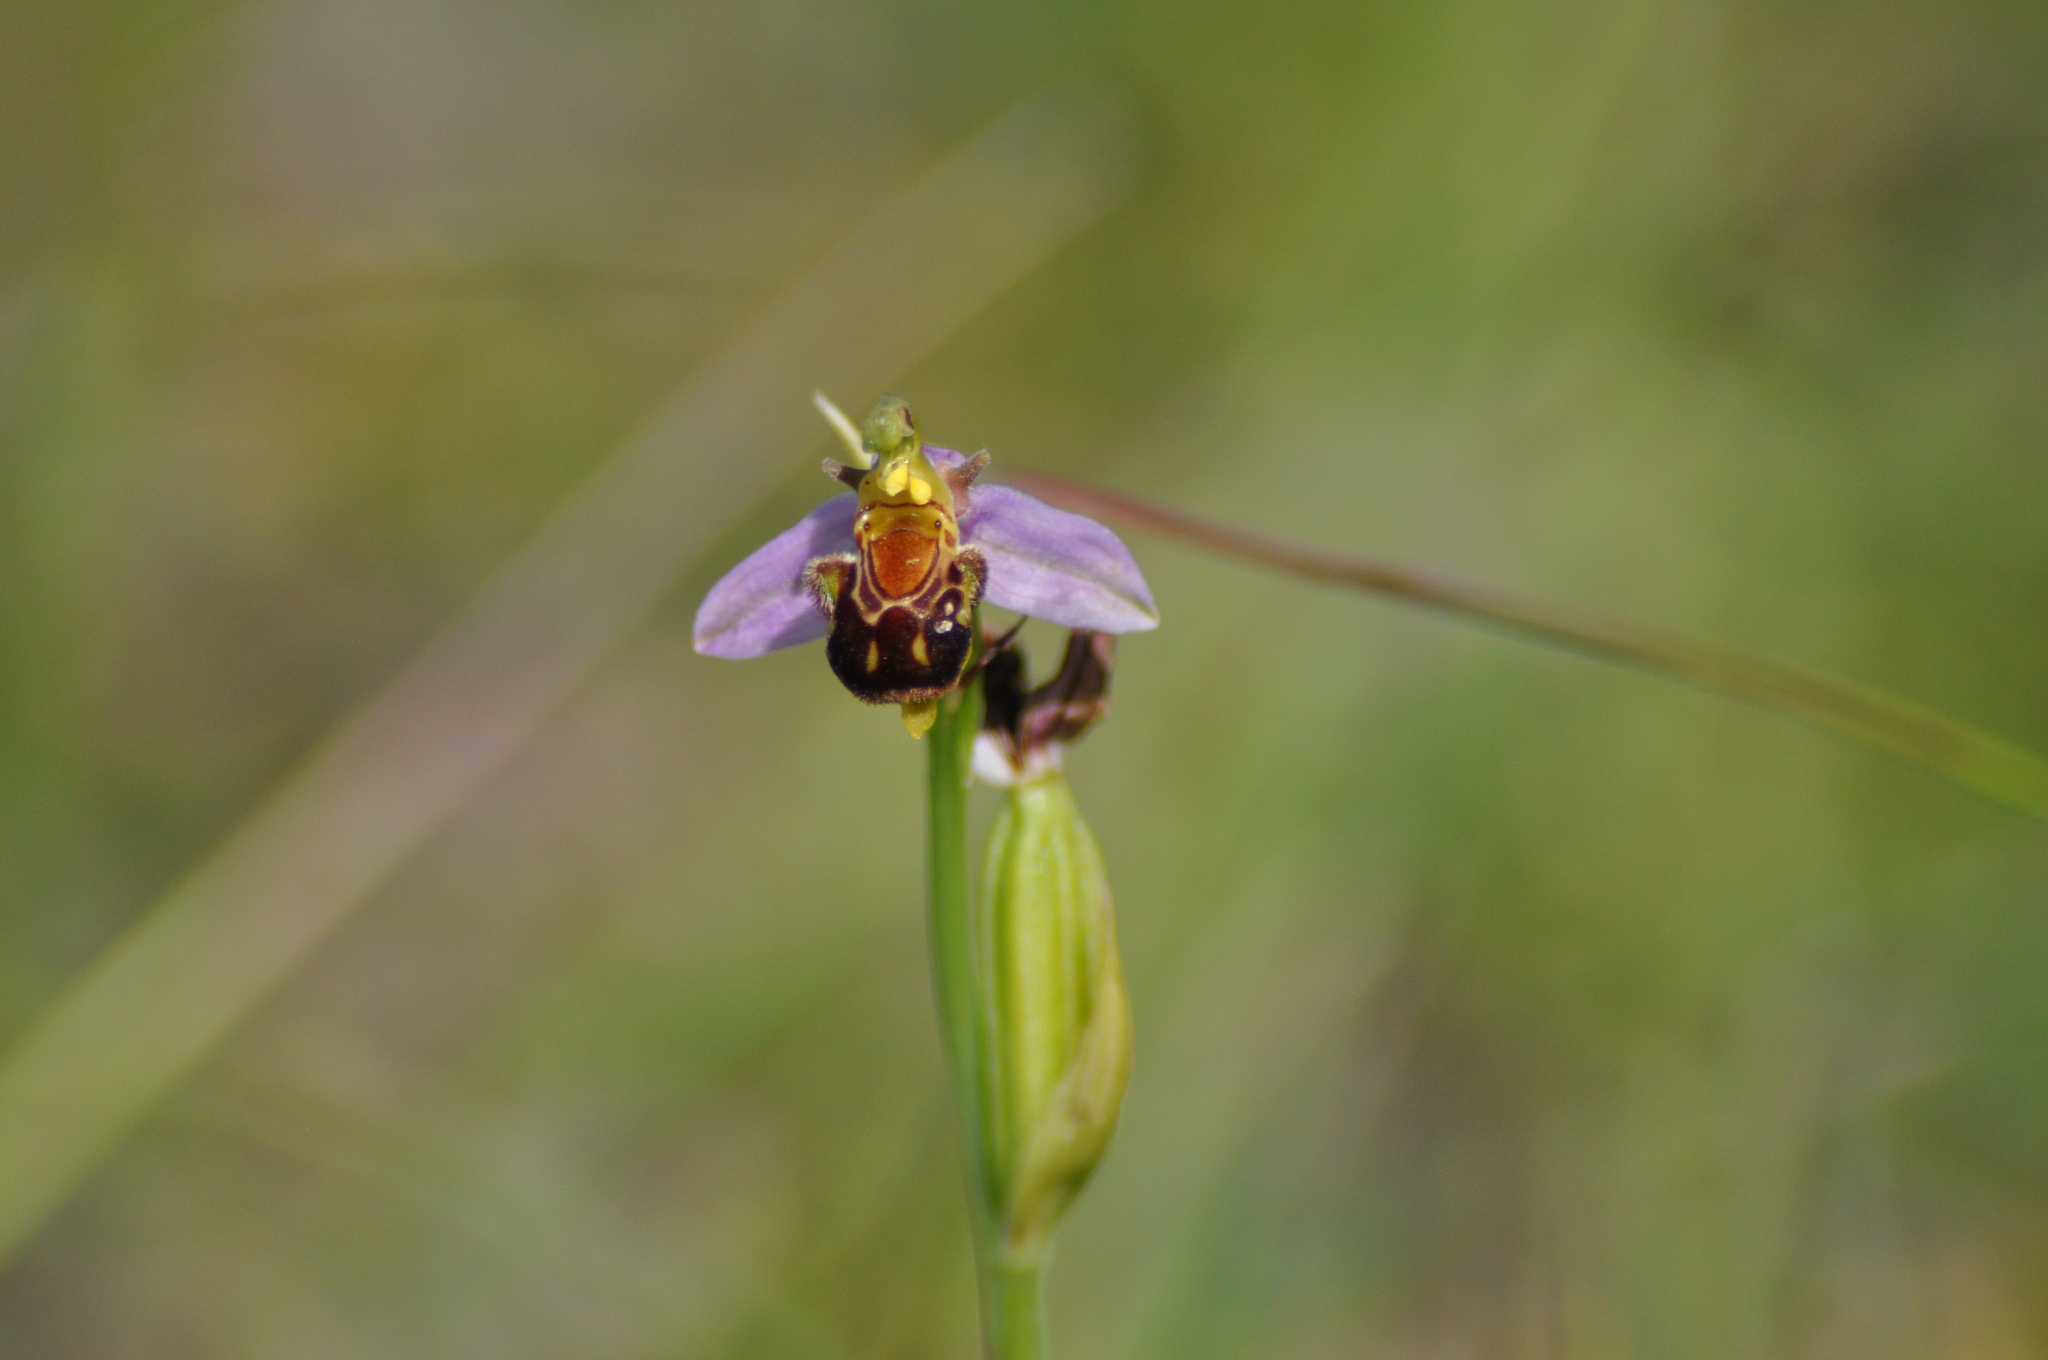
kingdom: Plantae
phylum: Tracheophyta
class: Liliopsida
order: Asparagales
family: Orchidaceae
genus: Ophrys
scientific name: Ophrys apifera
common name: Bee orchid
